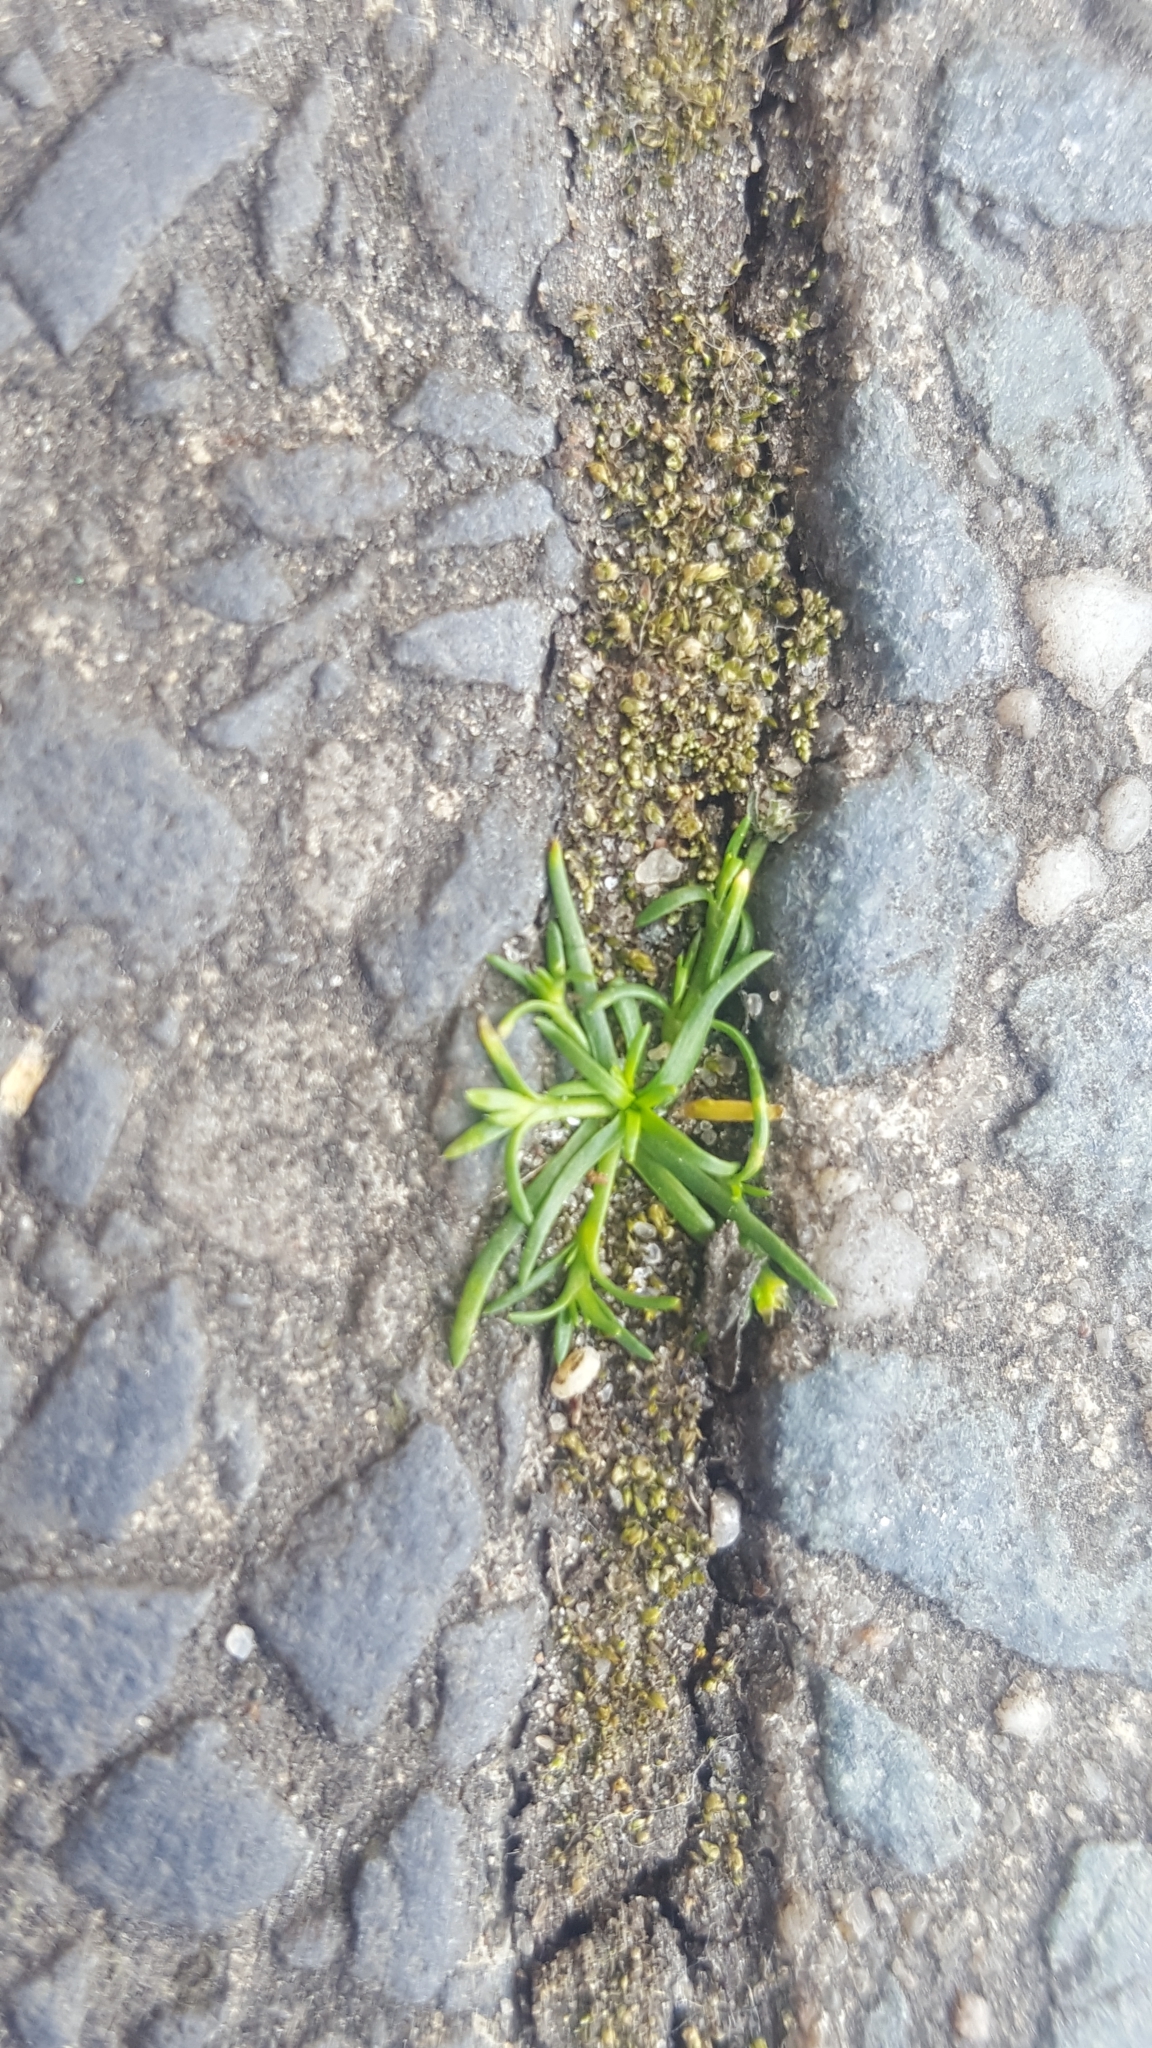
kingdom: Plantae
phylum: Tracheophyta
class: Magnoliopsida
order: Caryophyllales
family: Caryophyllaceae
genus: Sagina
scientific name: Sagina procumbens
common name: Procumbent pearlwort
